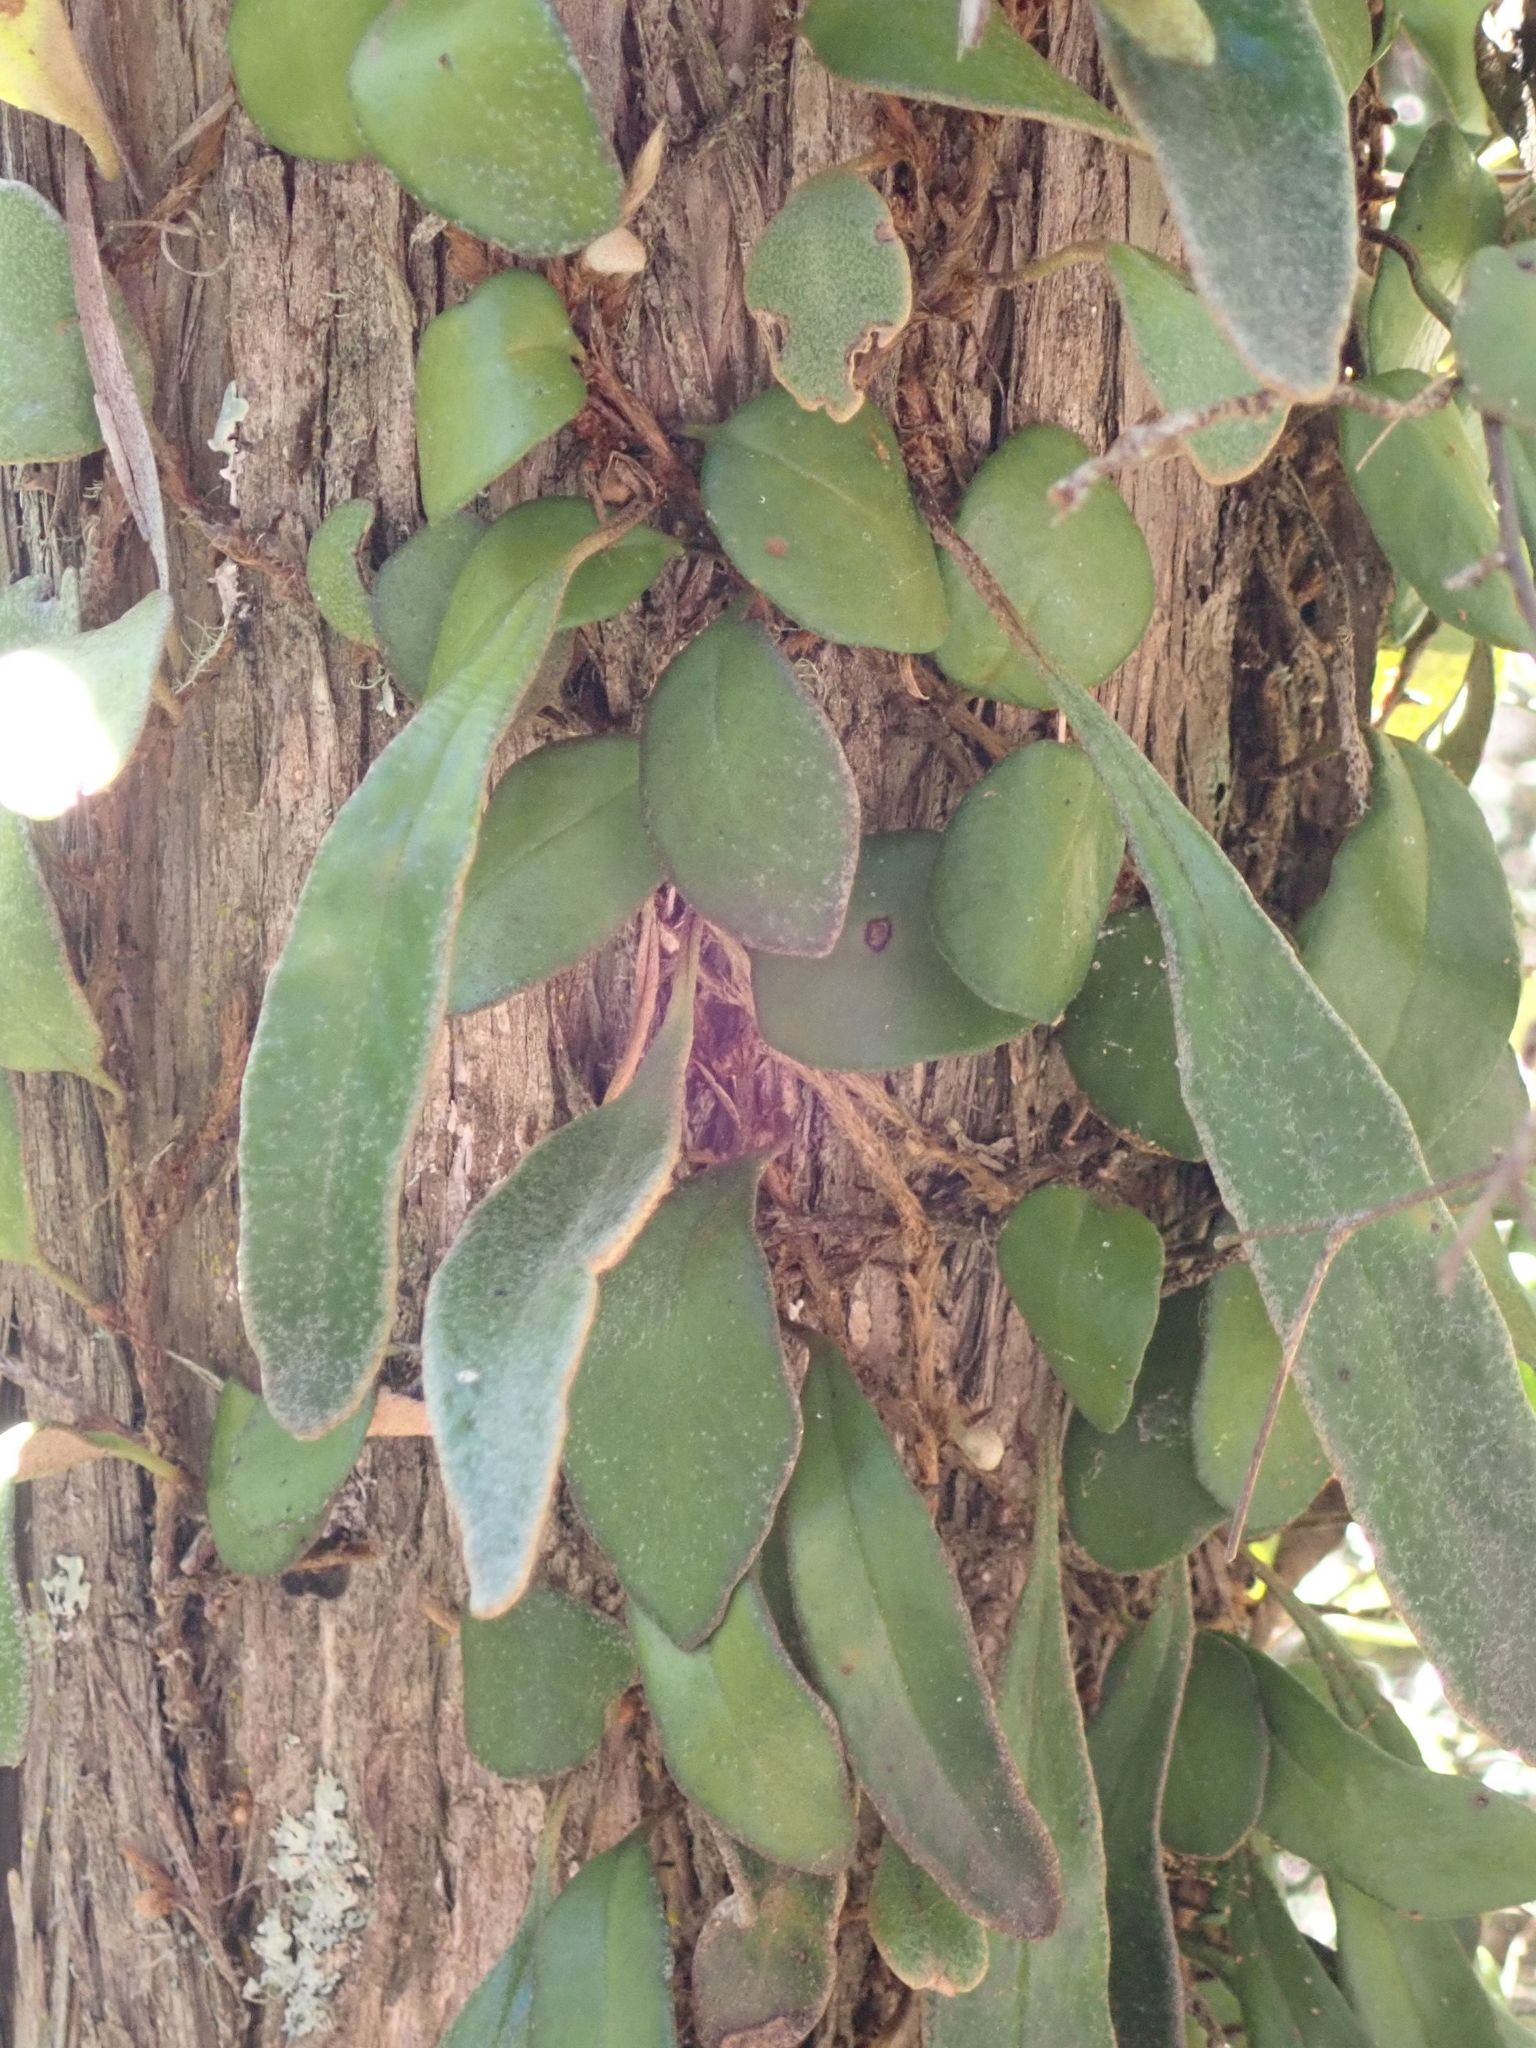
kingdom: Plantae
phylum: Tracheophyta
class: Polypodiopsida
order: Polypodiales
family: Polypodiaceae
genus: Pyrrosia
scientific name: Pyrrosia eleagnifolia
